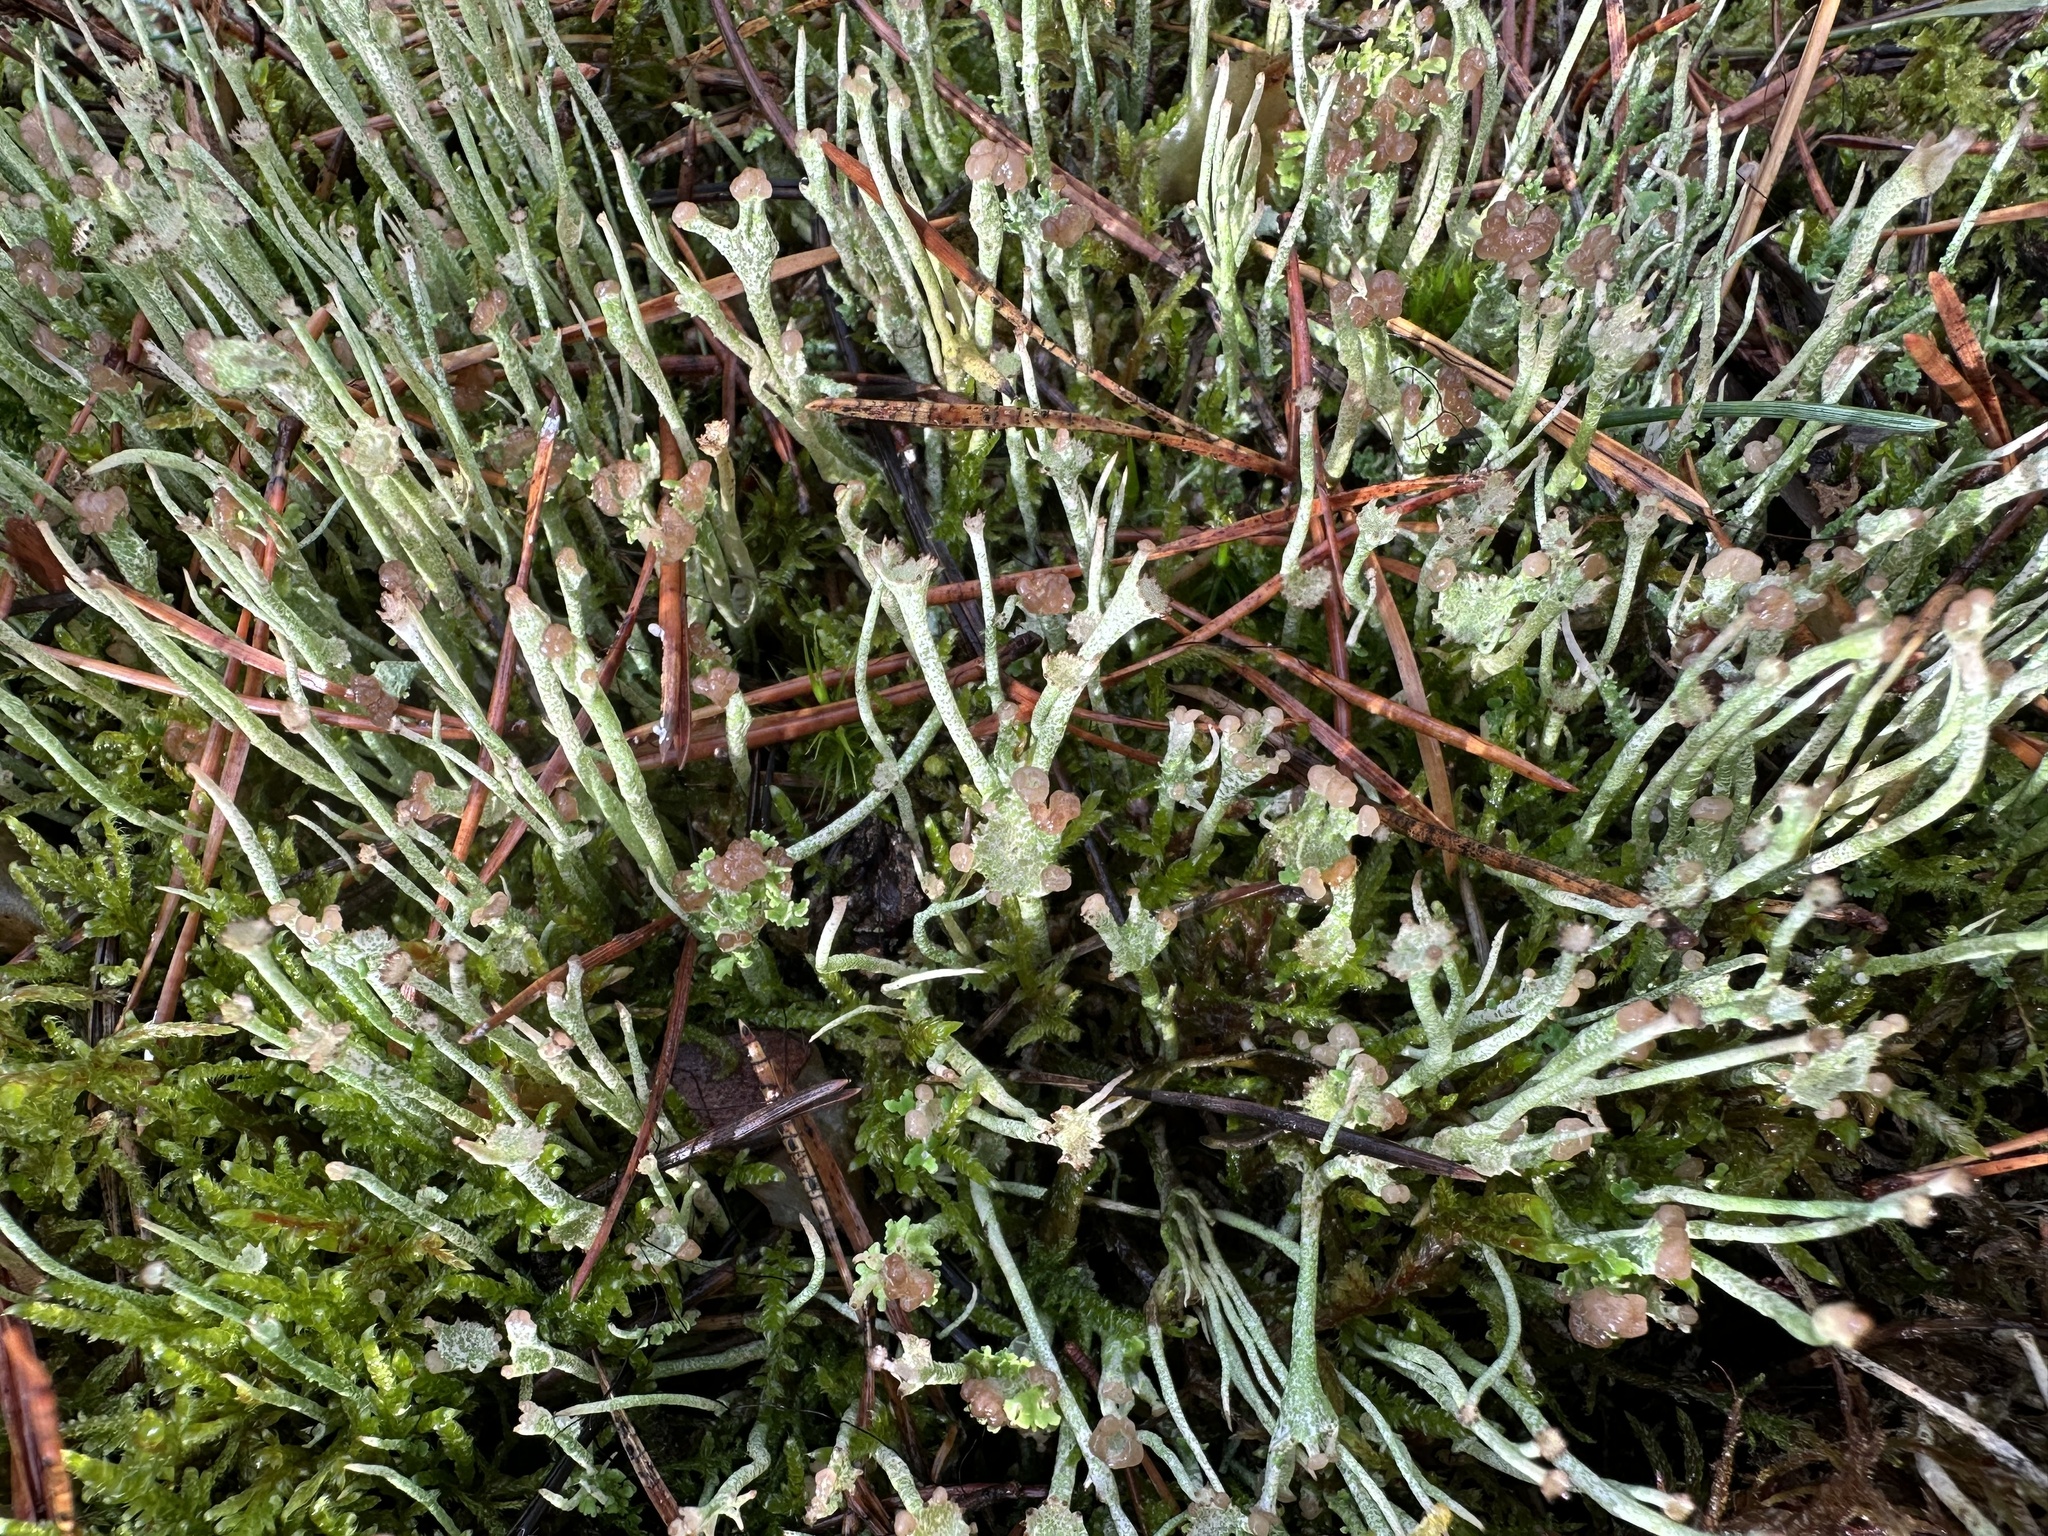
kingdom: Fungi
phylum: Ascomycota
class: Lecanoromycetes
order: Lecanorales
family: Cladoniaceae
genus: Cladonia
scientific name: Cladonia gracilis
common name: Smooth clad lichen
